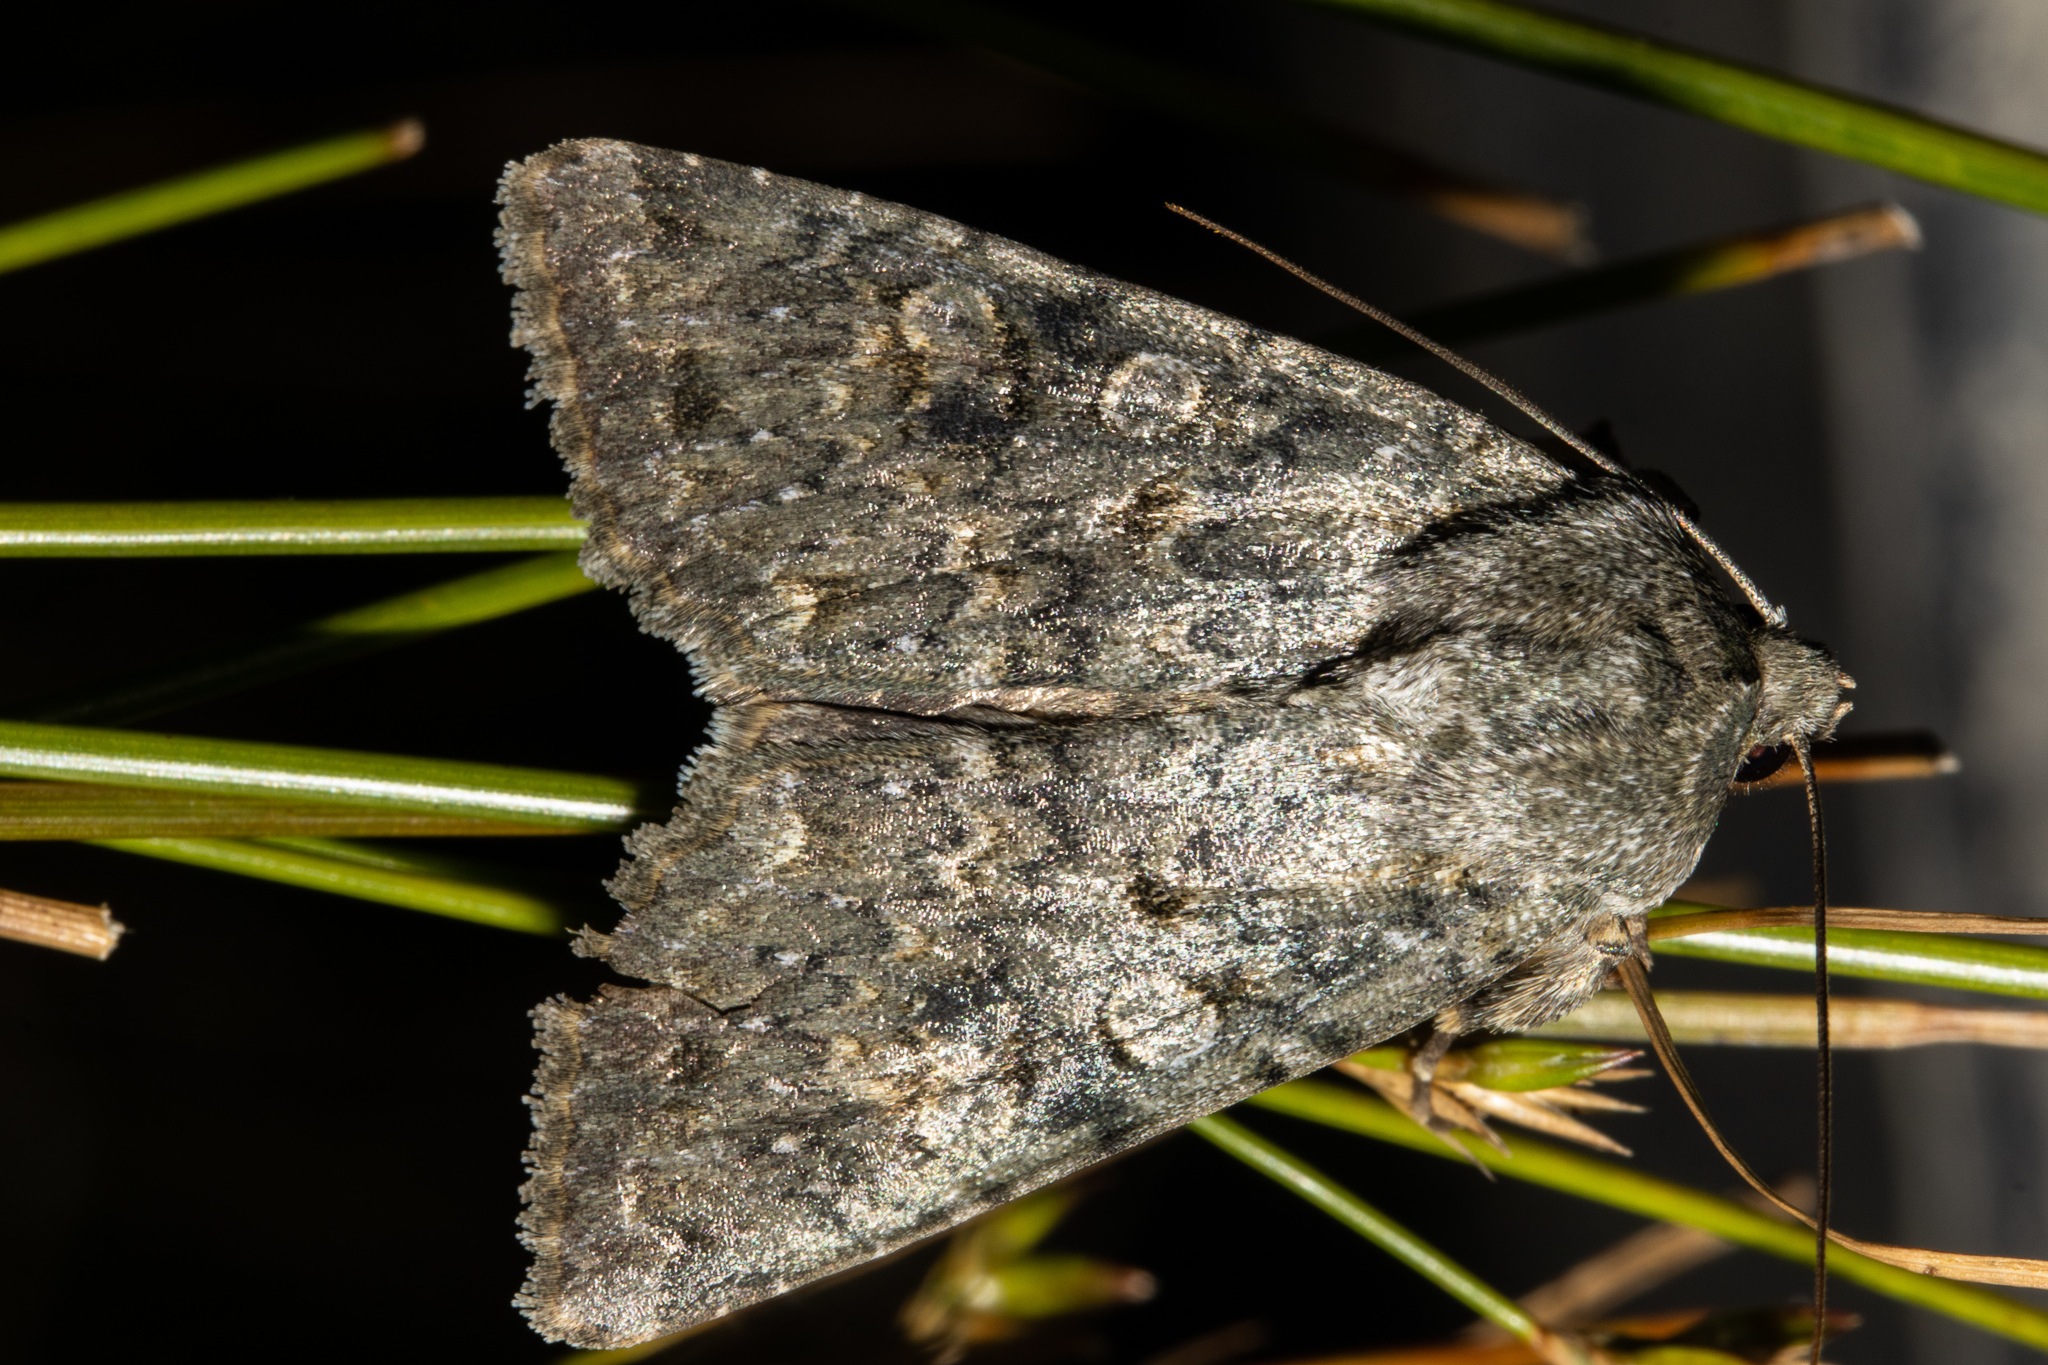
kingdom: Animalia
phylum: Arthropoda
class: Insecta
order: Lepidoptera
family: Noctuidae
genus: Ichneutica
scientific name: Ichneutica
